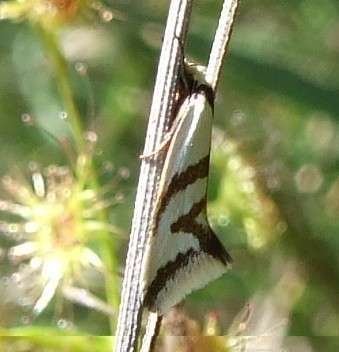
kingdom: Animalia
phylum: Arthropoda
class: Insecta
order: Lepidoptera
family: Oecophoridae
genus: Ocystola
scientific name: Ocystola paulinella
